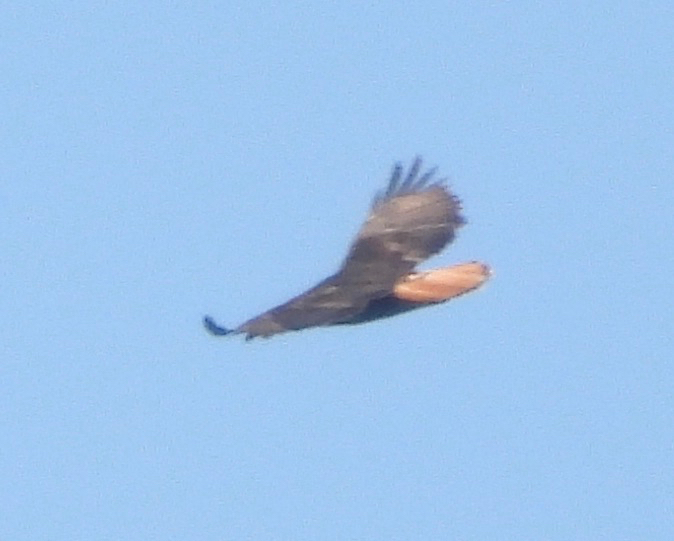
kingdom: Animalia
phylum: Chordata
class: Aves
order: Accipitriformes
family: Accipitridae
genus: Buteo
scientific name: Buteo jamaicensis
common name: Red-tailed hawk
